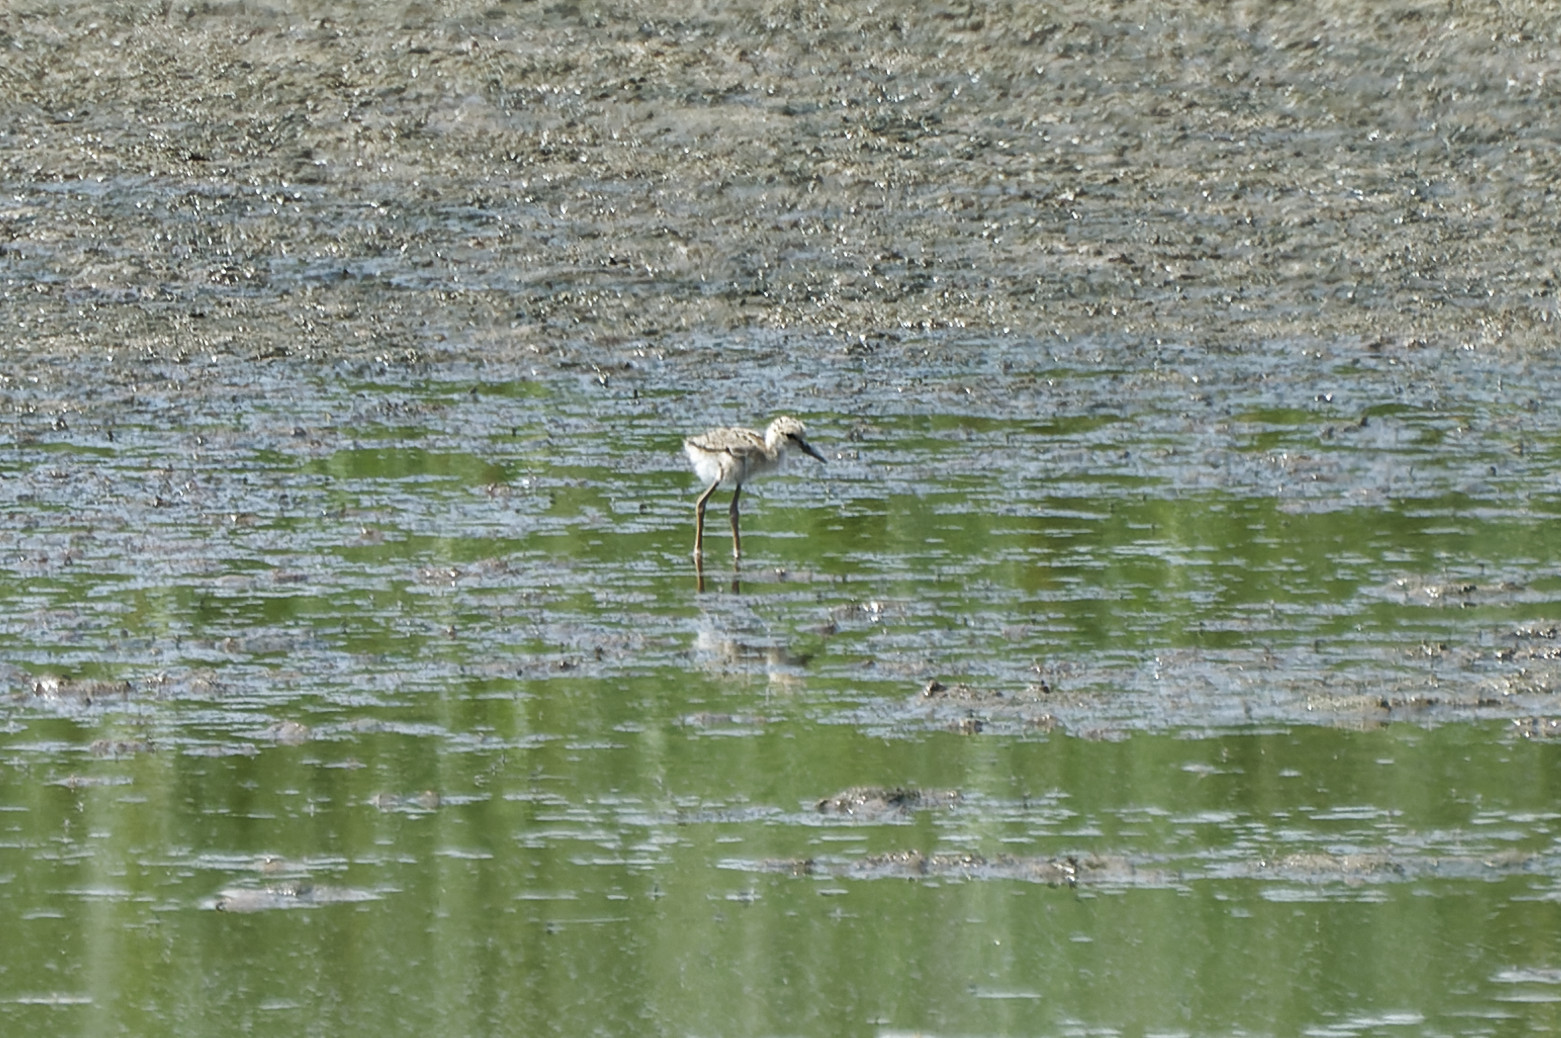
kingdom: Animalia
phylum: Chordata
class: Aves
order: Charadriiformes
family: Recurvirostridae
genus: Himantopus
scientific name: Himantopus himantopus
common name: Black-winged stilt
